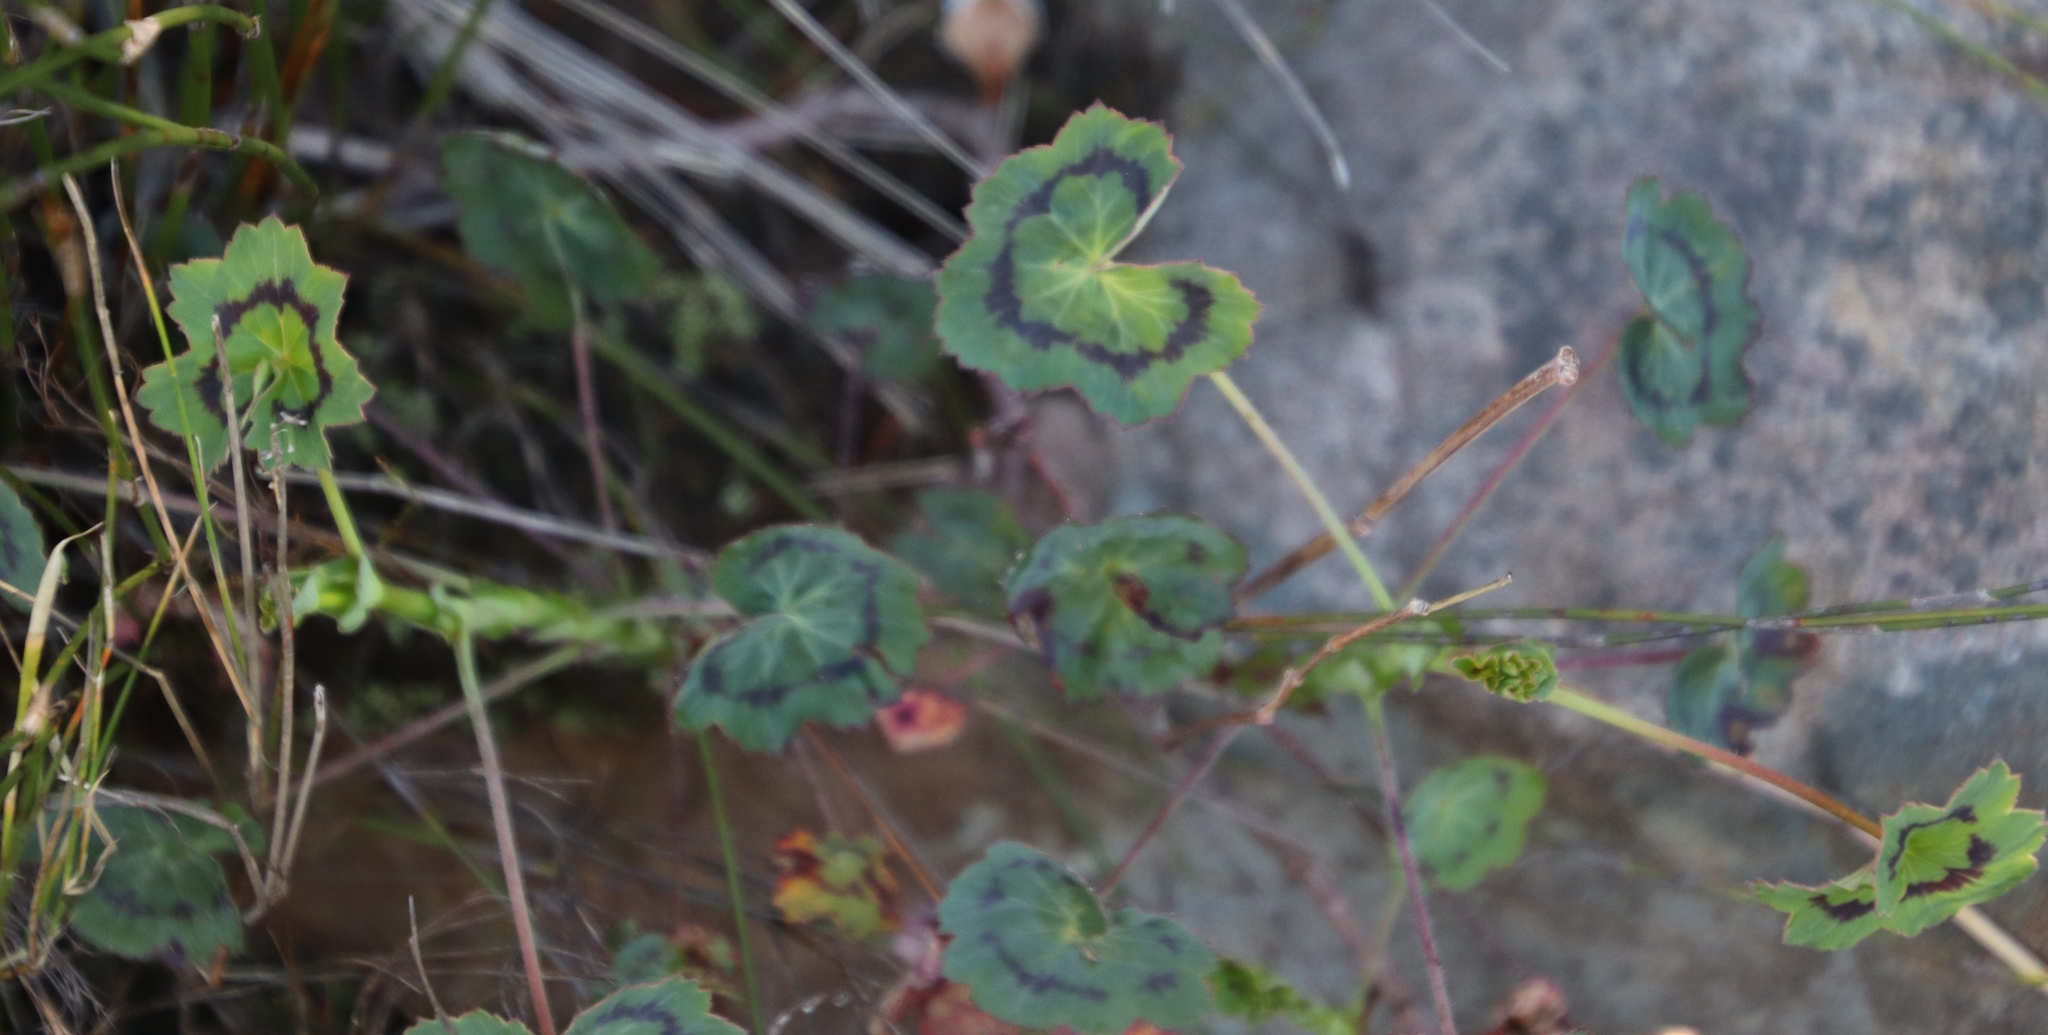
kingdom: Plantae
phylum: Tracheophyta
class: Magnoliopsida
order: Geraniales
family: Geraniaceae
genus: Pelargonium
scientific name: Pelargonium tabulare
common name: Table mountain pelargonium
